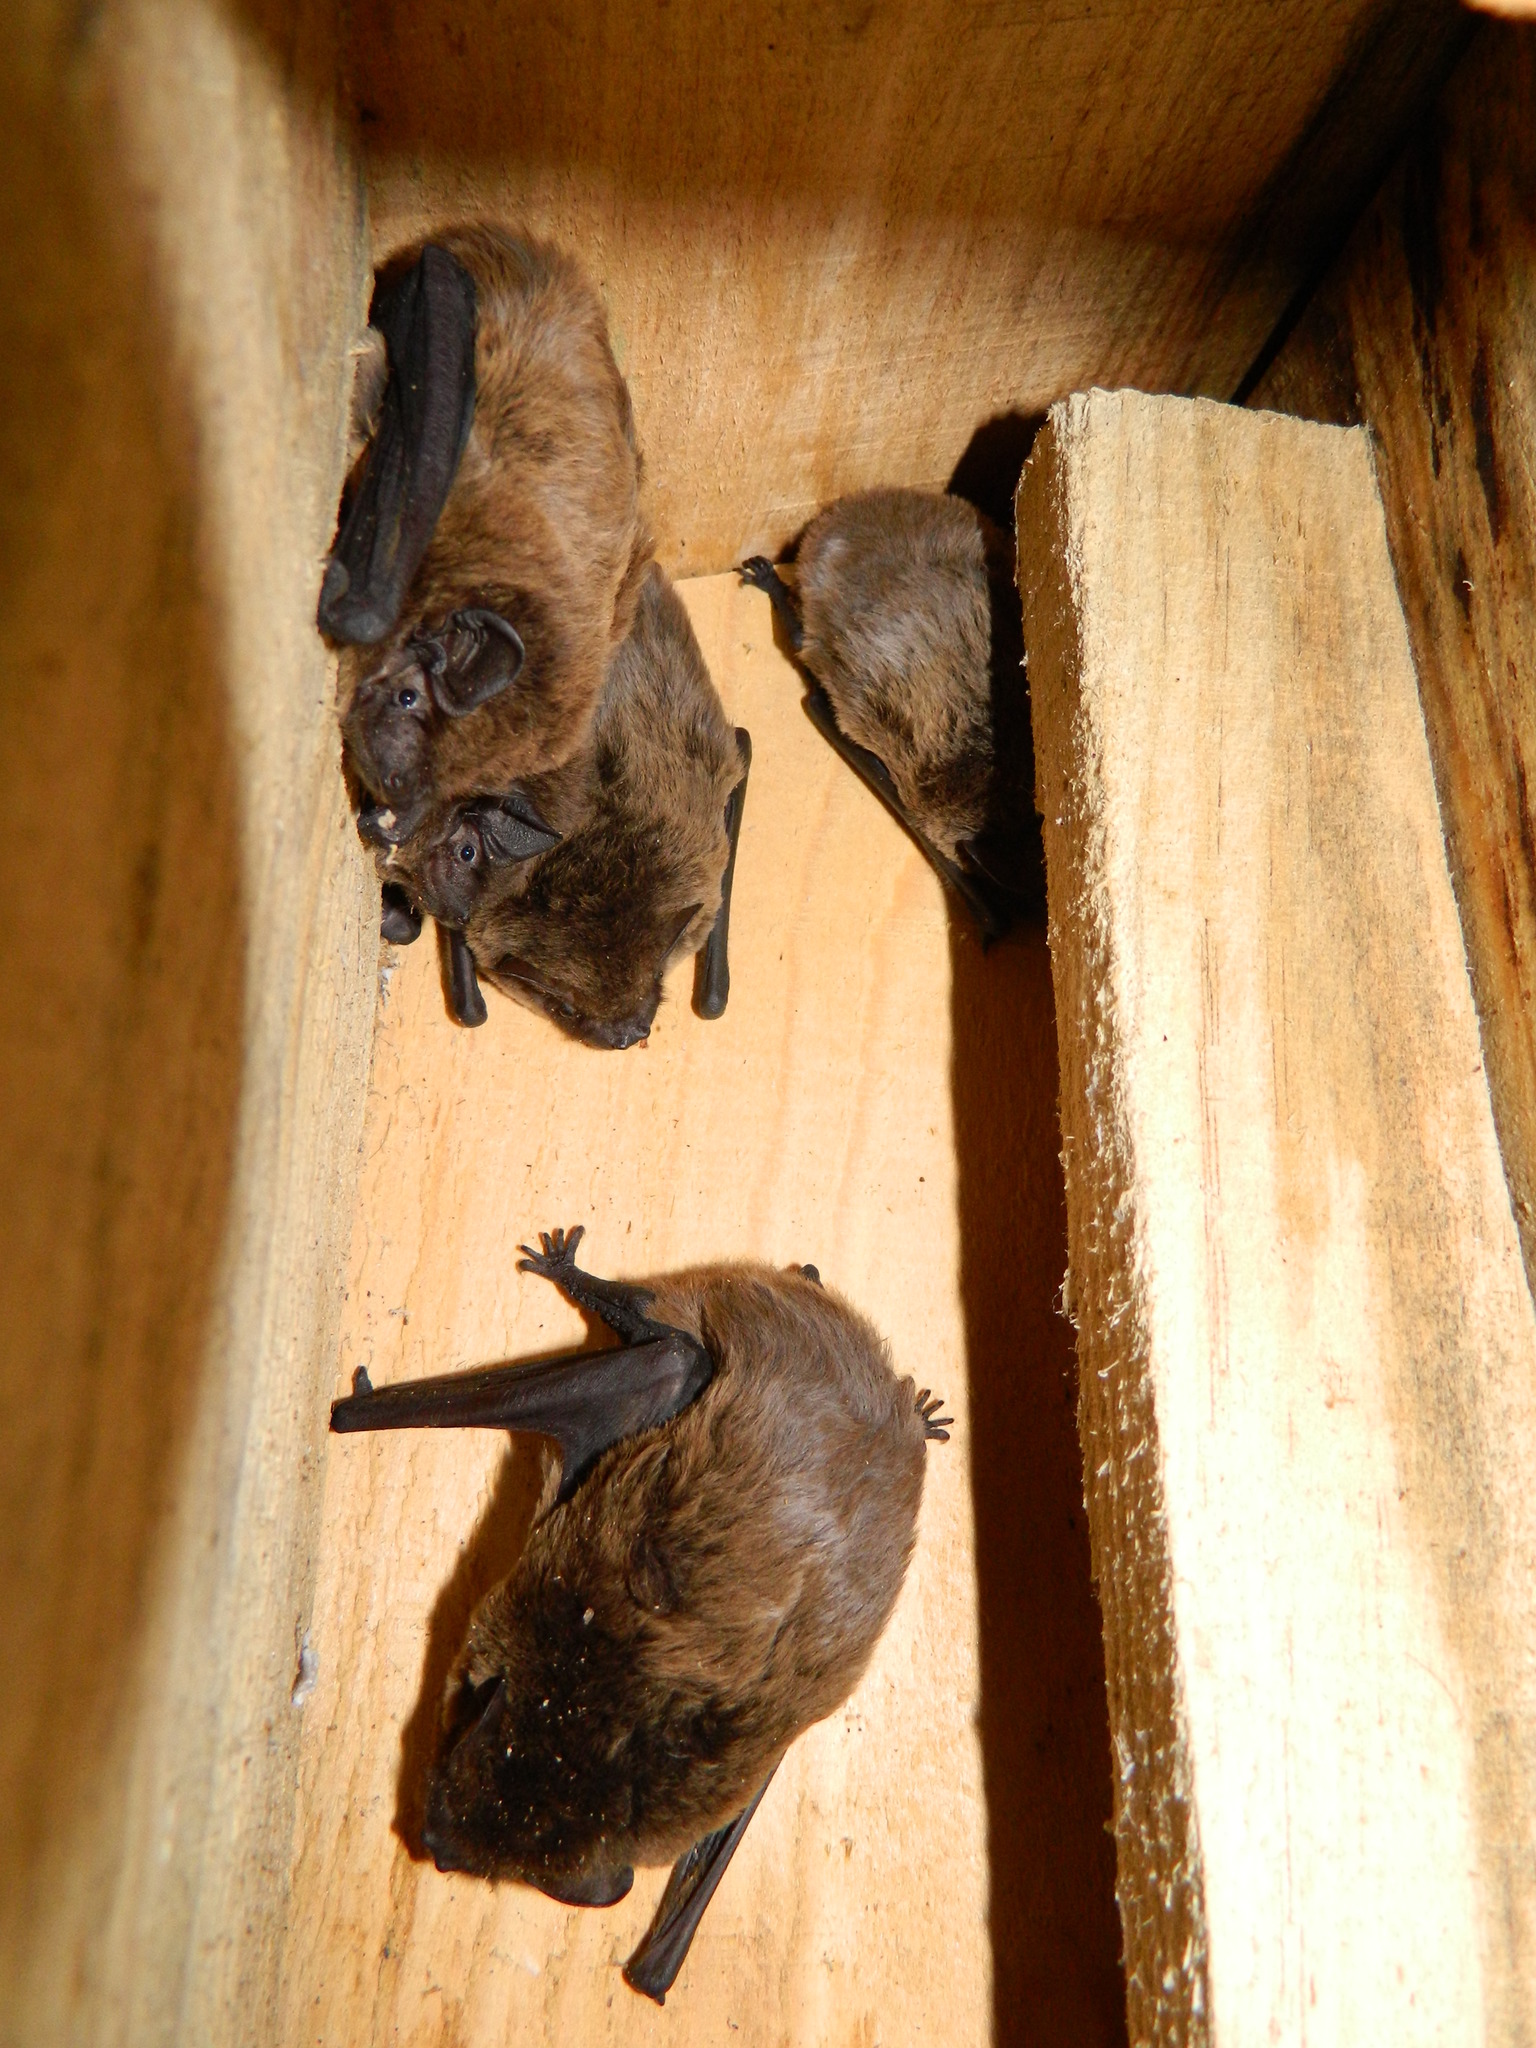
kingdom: Animalia
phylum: Chordata
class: Mammalia
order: Chiroptera
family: Vespertilionidae
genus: Nyctalus
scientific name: Nyctalus leisleri
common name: Lesser noctule
